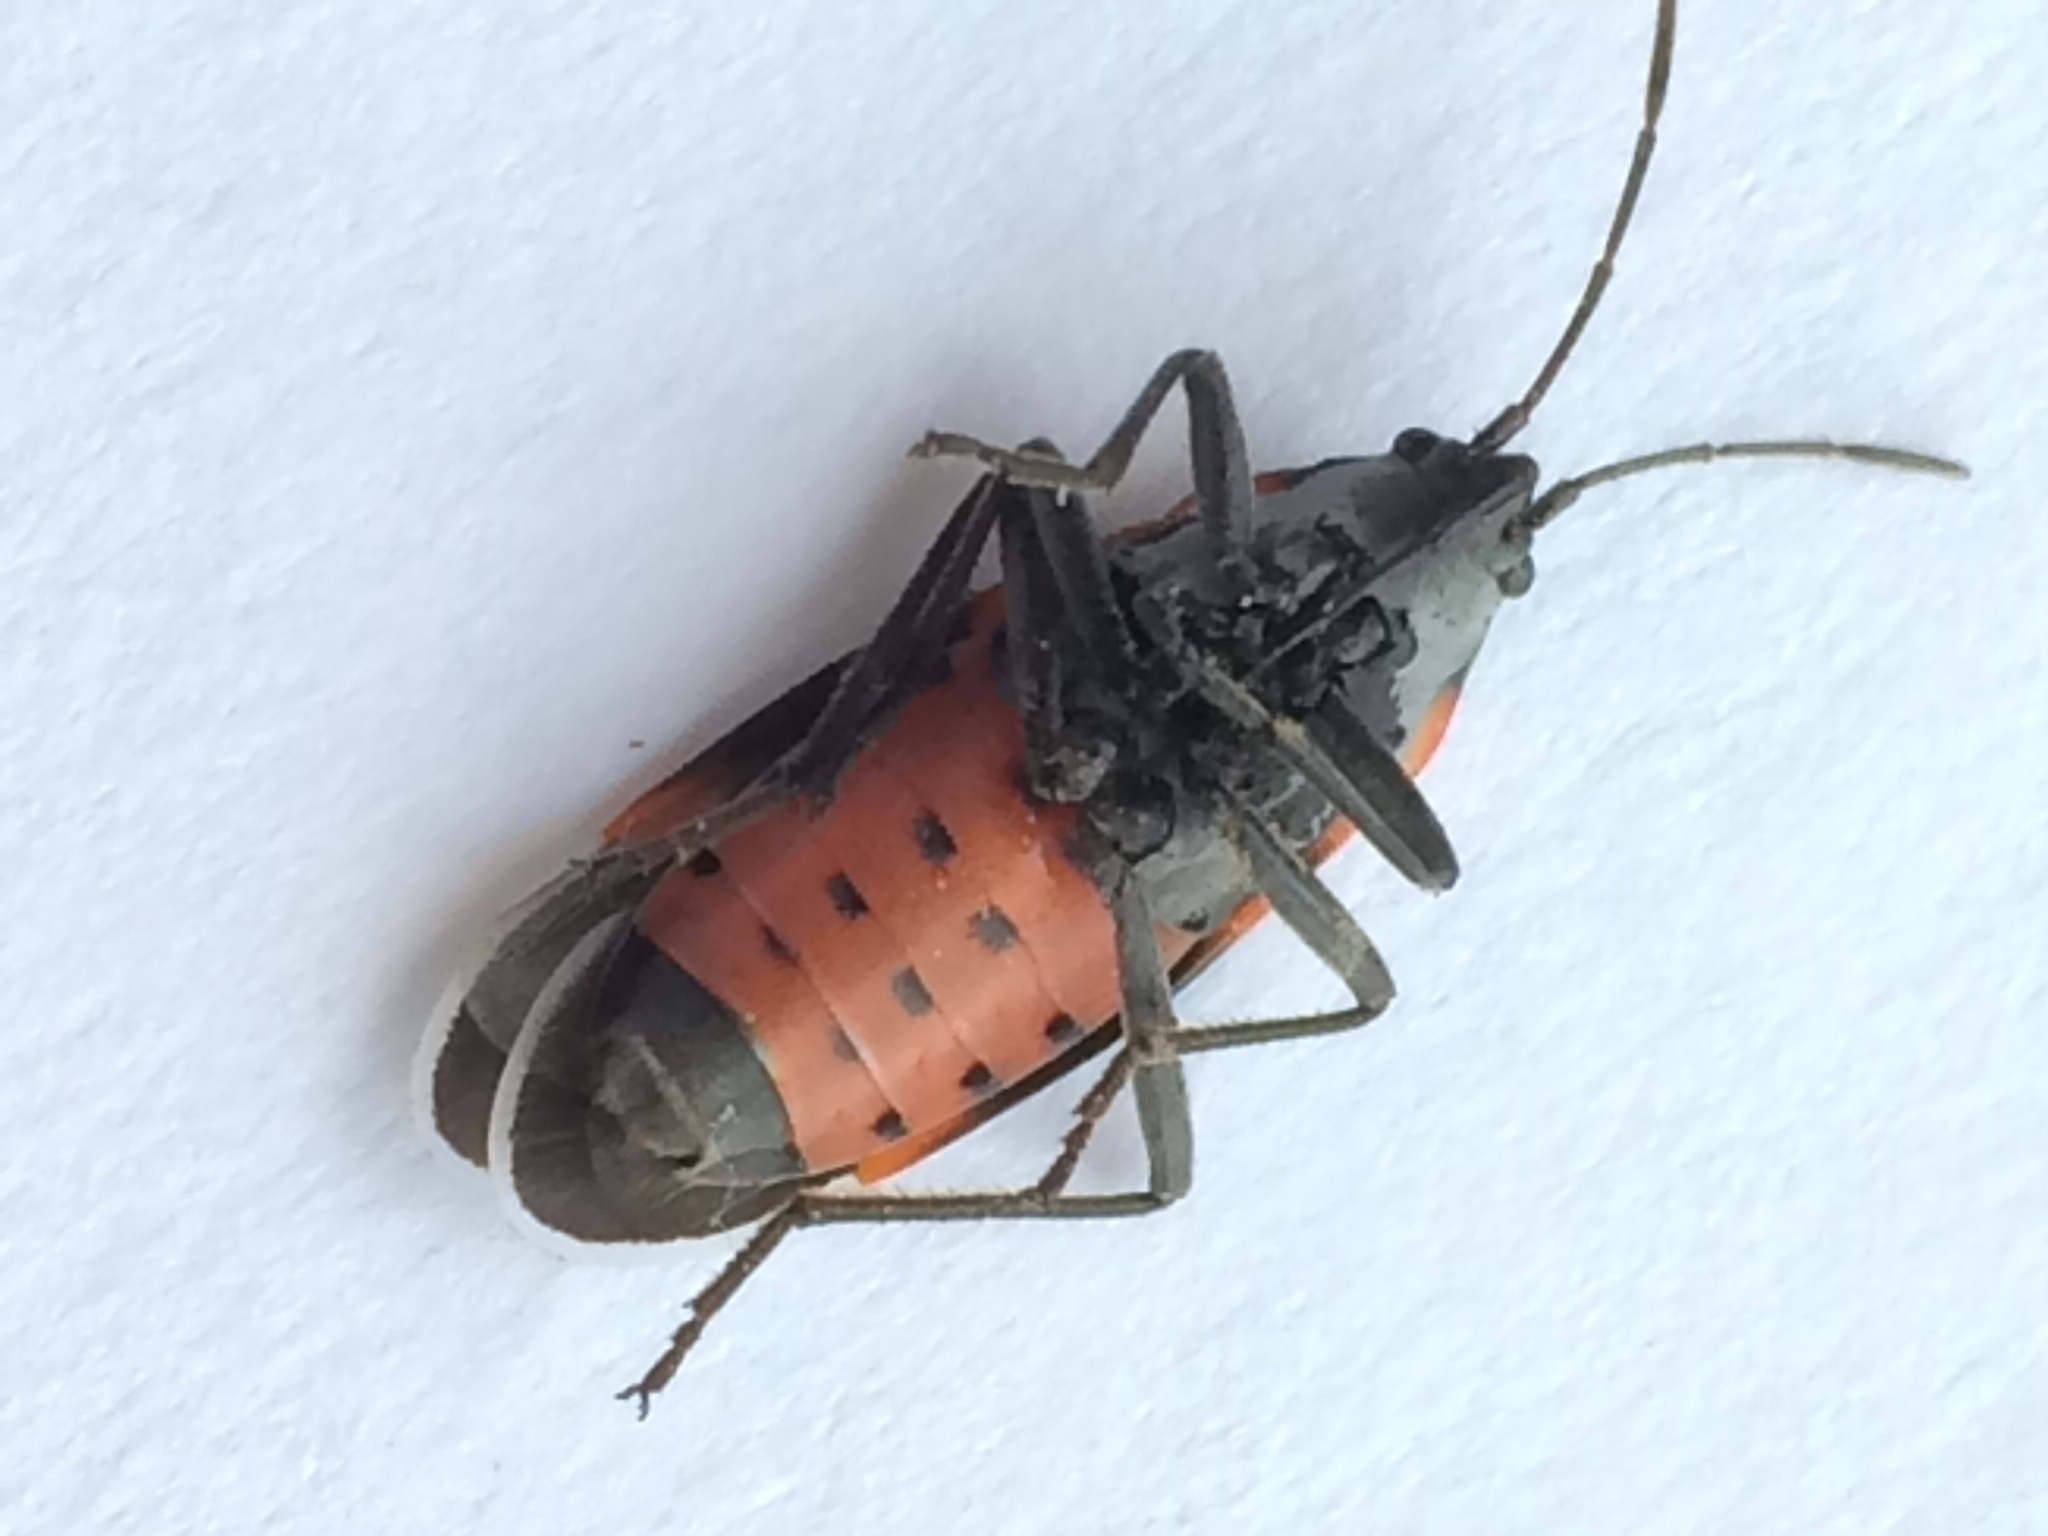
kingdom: Animalia
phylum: Arthropoda
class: Insecta
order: Hemiptera
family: Lygaeidae
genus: Lygaeus
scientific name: Lygaeus kalmii
